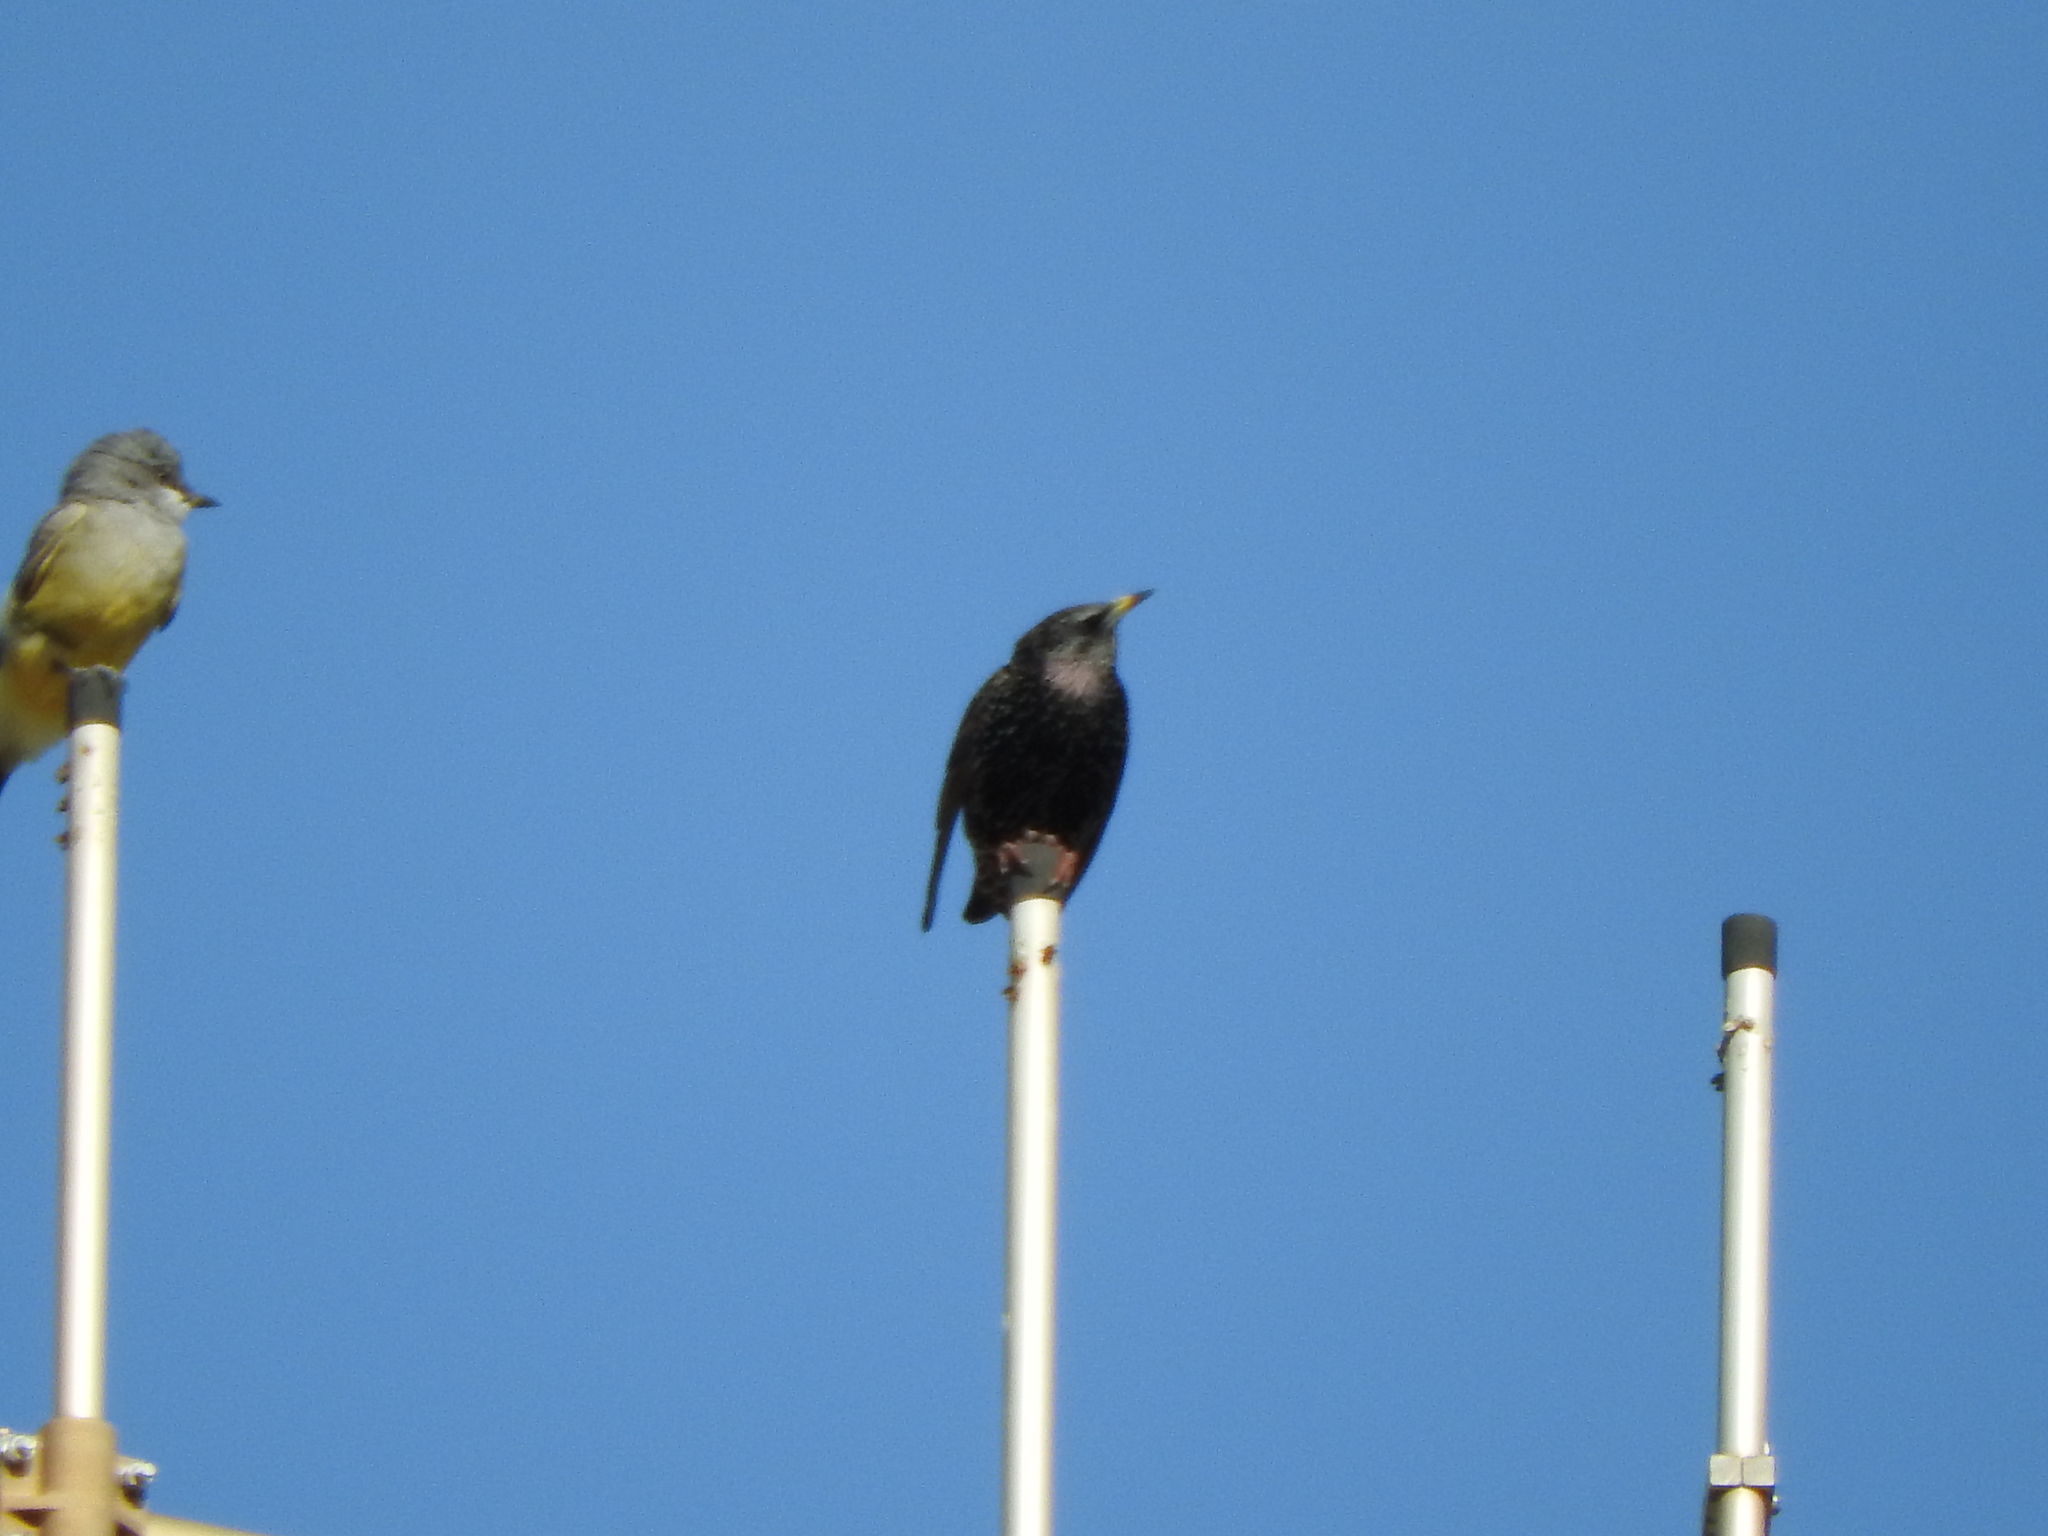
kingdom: Animalia
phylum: Chordata
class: Aves
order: Passeriformes
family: Sturnidae
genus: Sturnus
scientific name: Sturnus vulgaris
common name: Common starling
